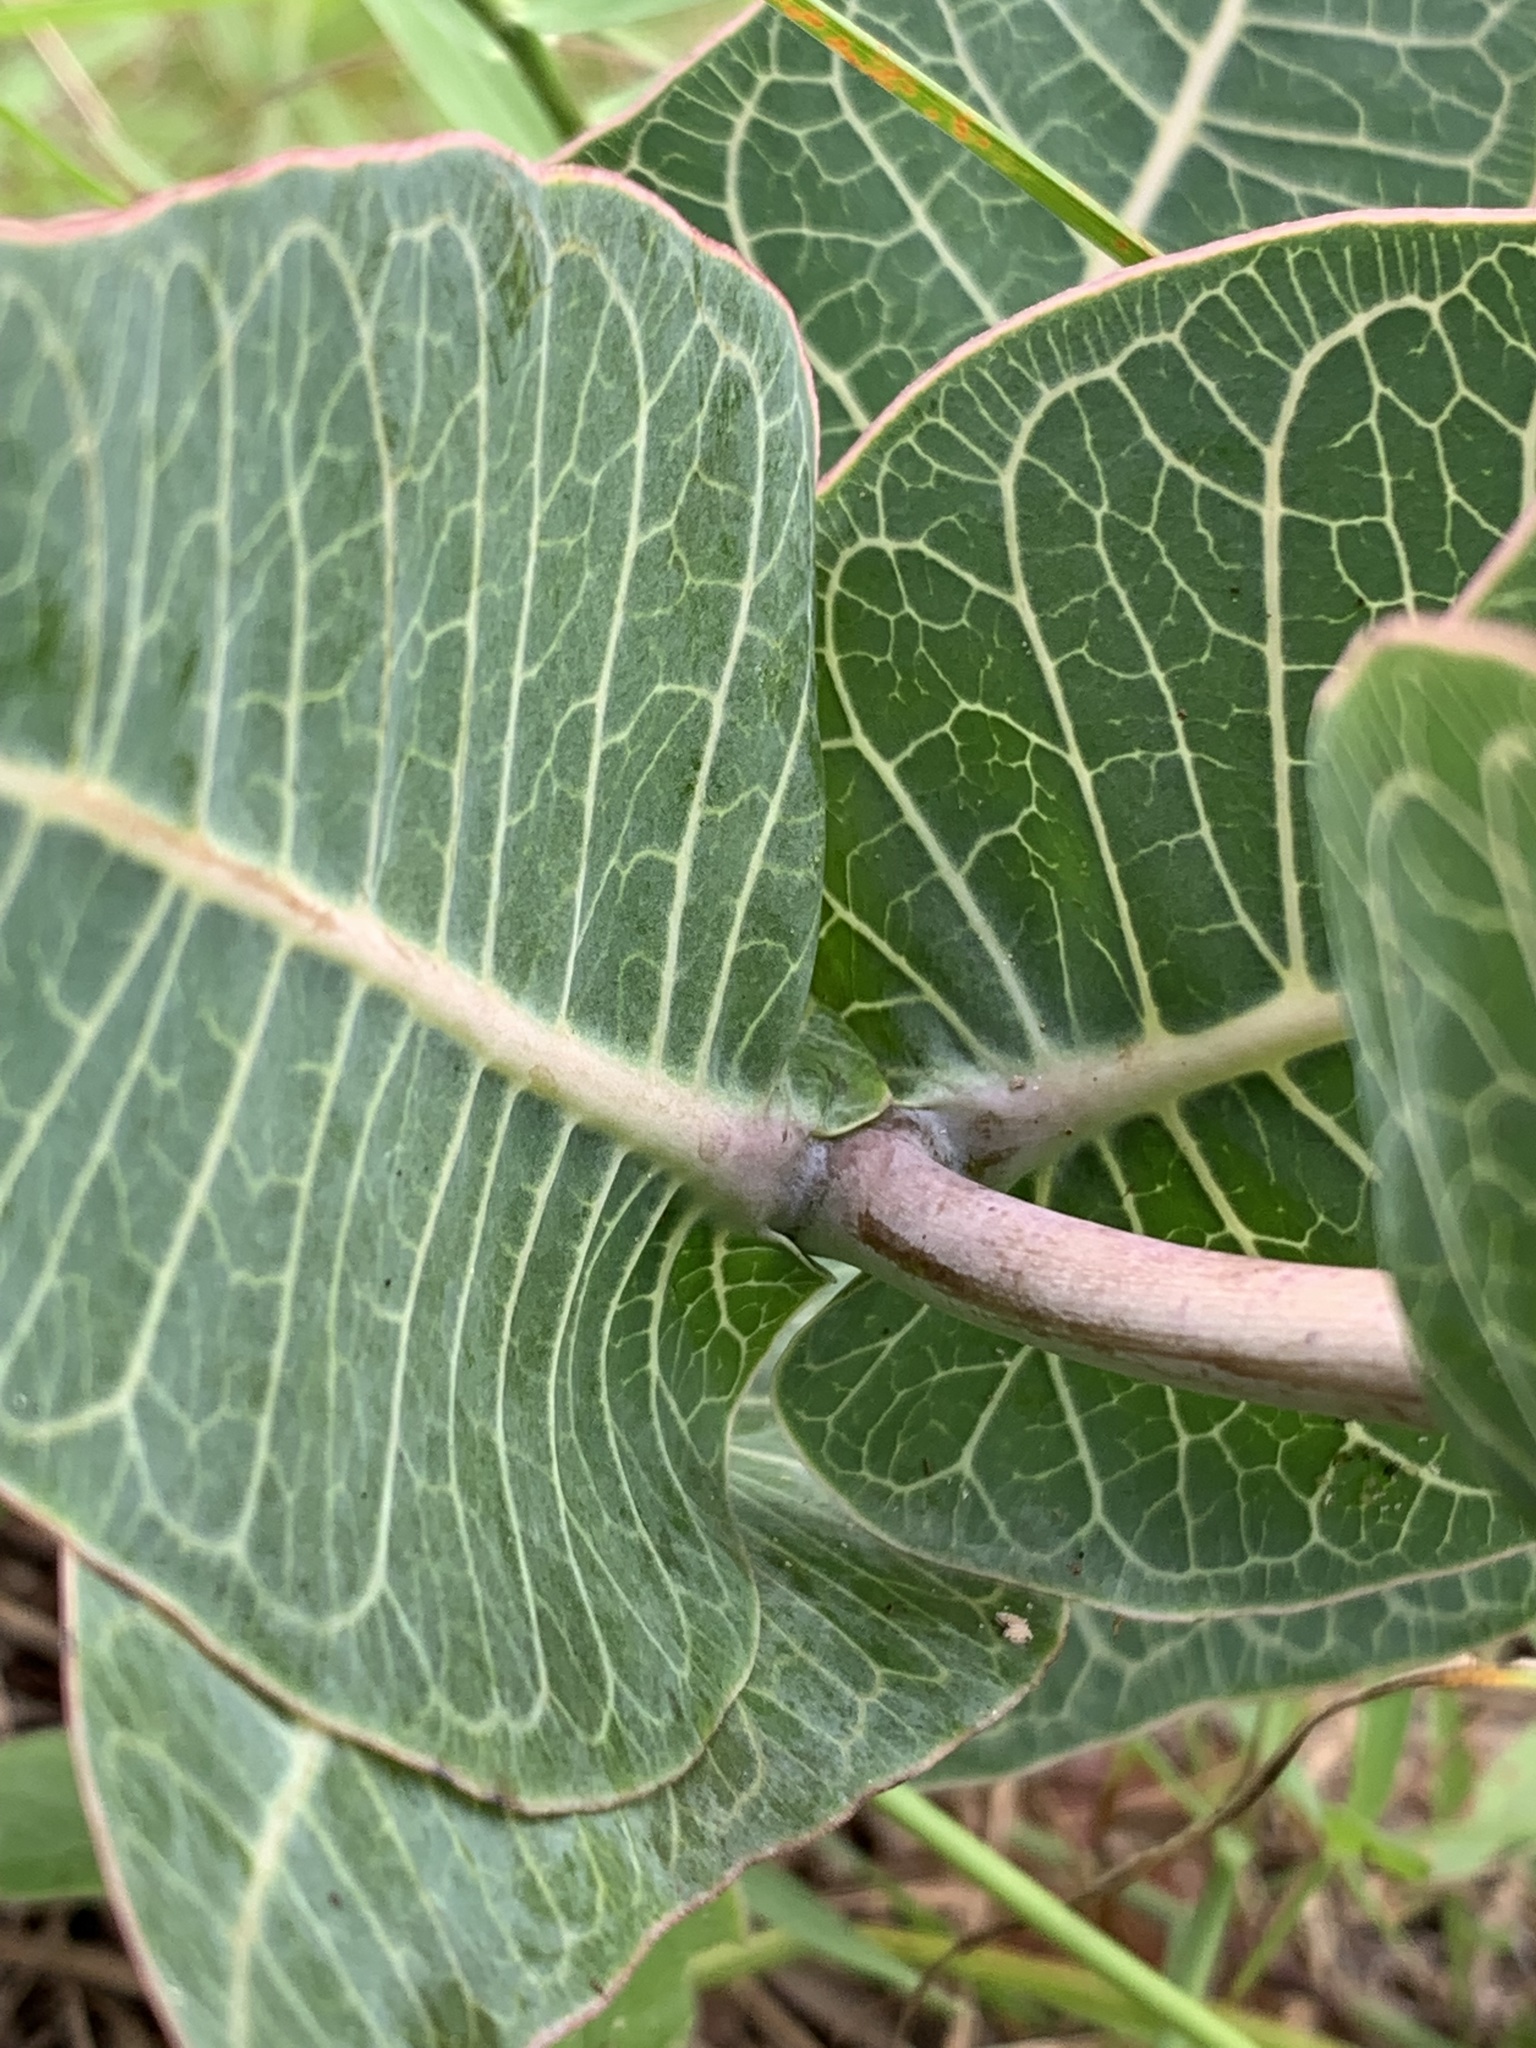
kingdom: Plantae
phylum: Tracheophyta
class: Magnoliopsida
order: Gentianales
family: Apocynaceae
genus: Asclepias
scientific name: Asclepias humistrata
